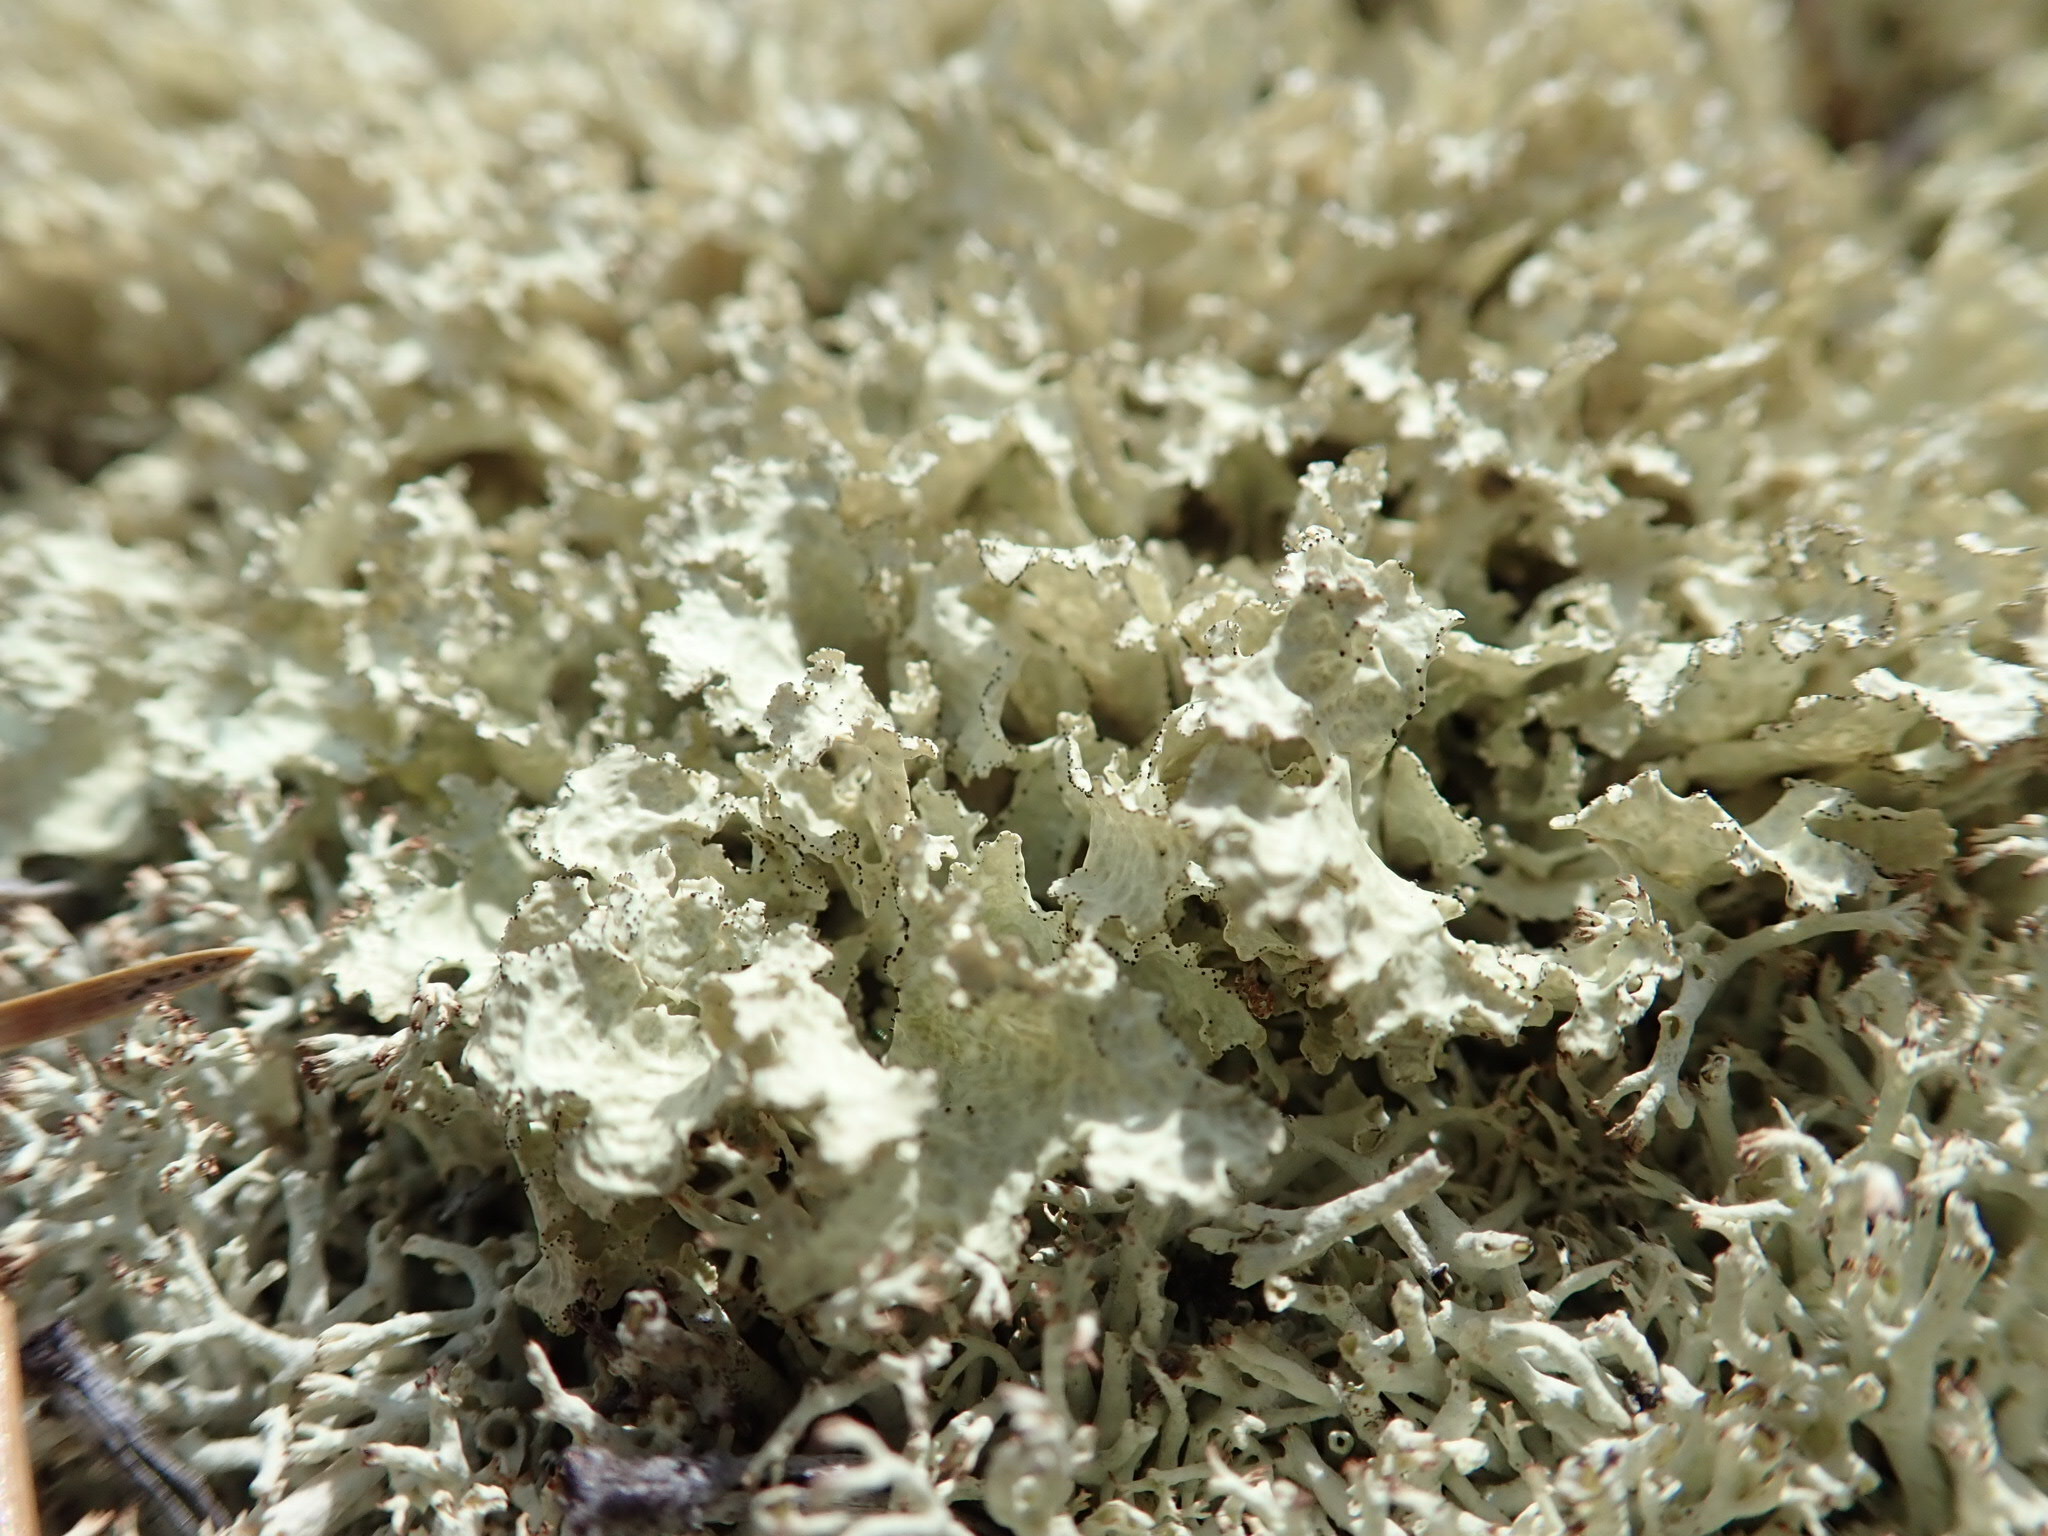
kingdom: Fungi
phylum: Ascomycota
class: Lecanoromycetes
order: Lecanorales
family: Parmeliaceae
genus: Nephromopsis
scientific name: Nephromopsis nivalis
